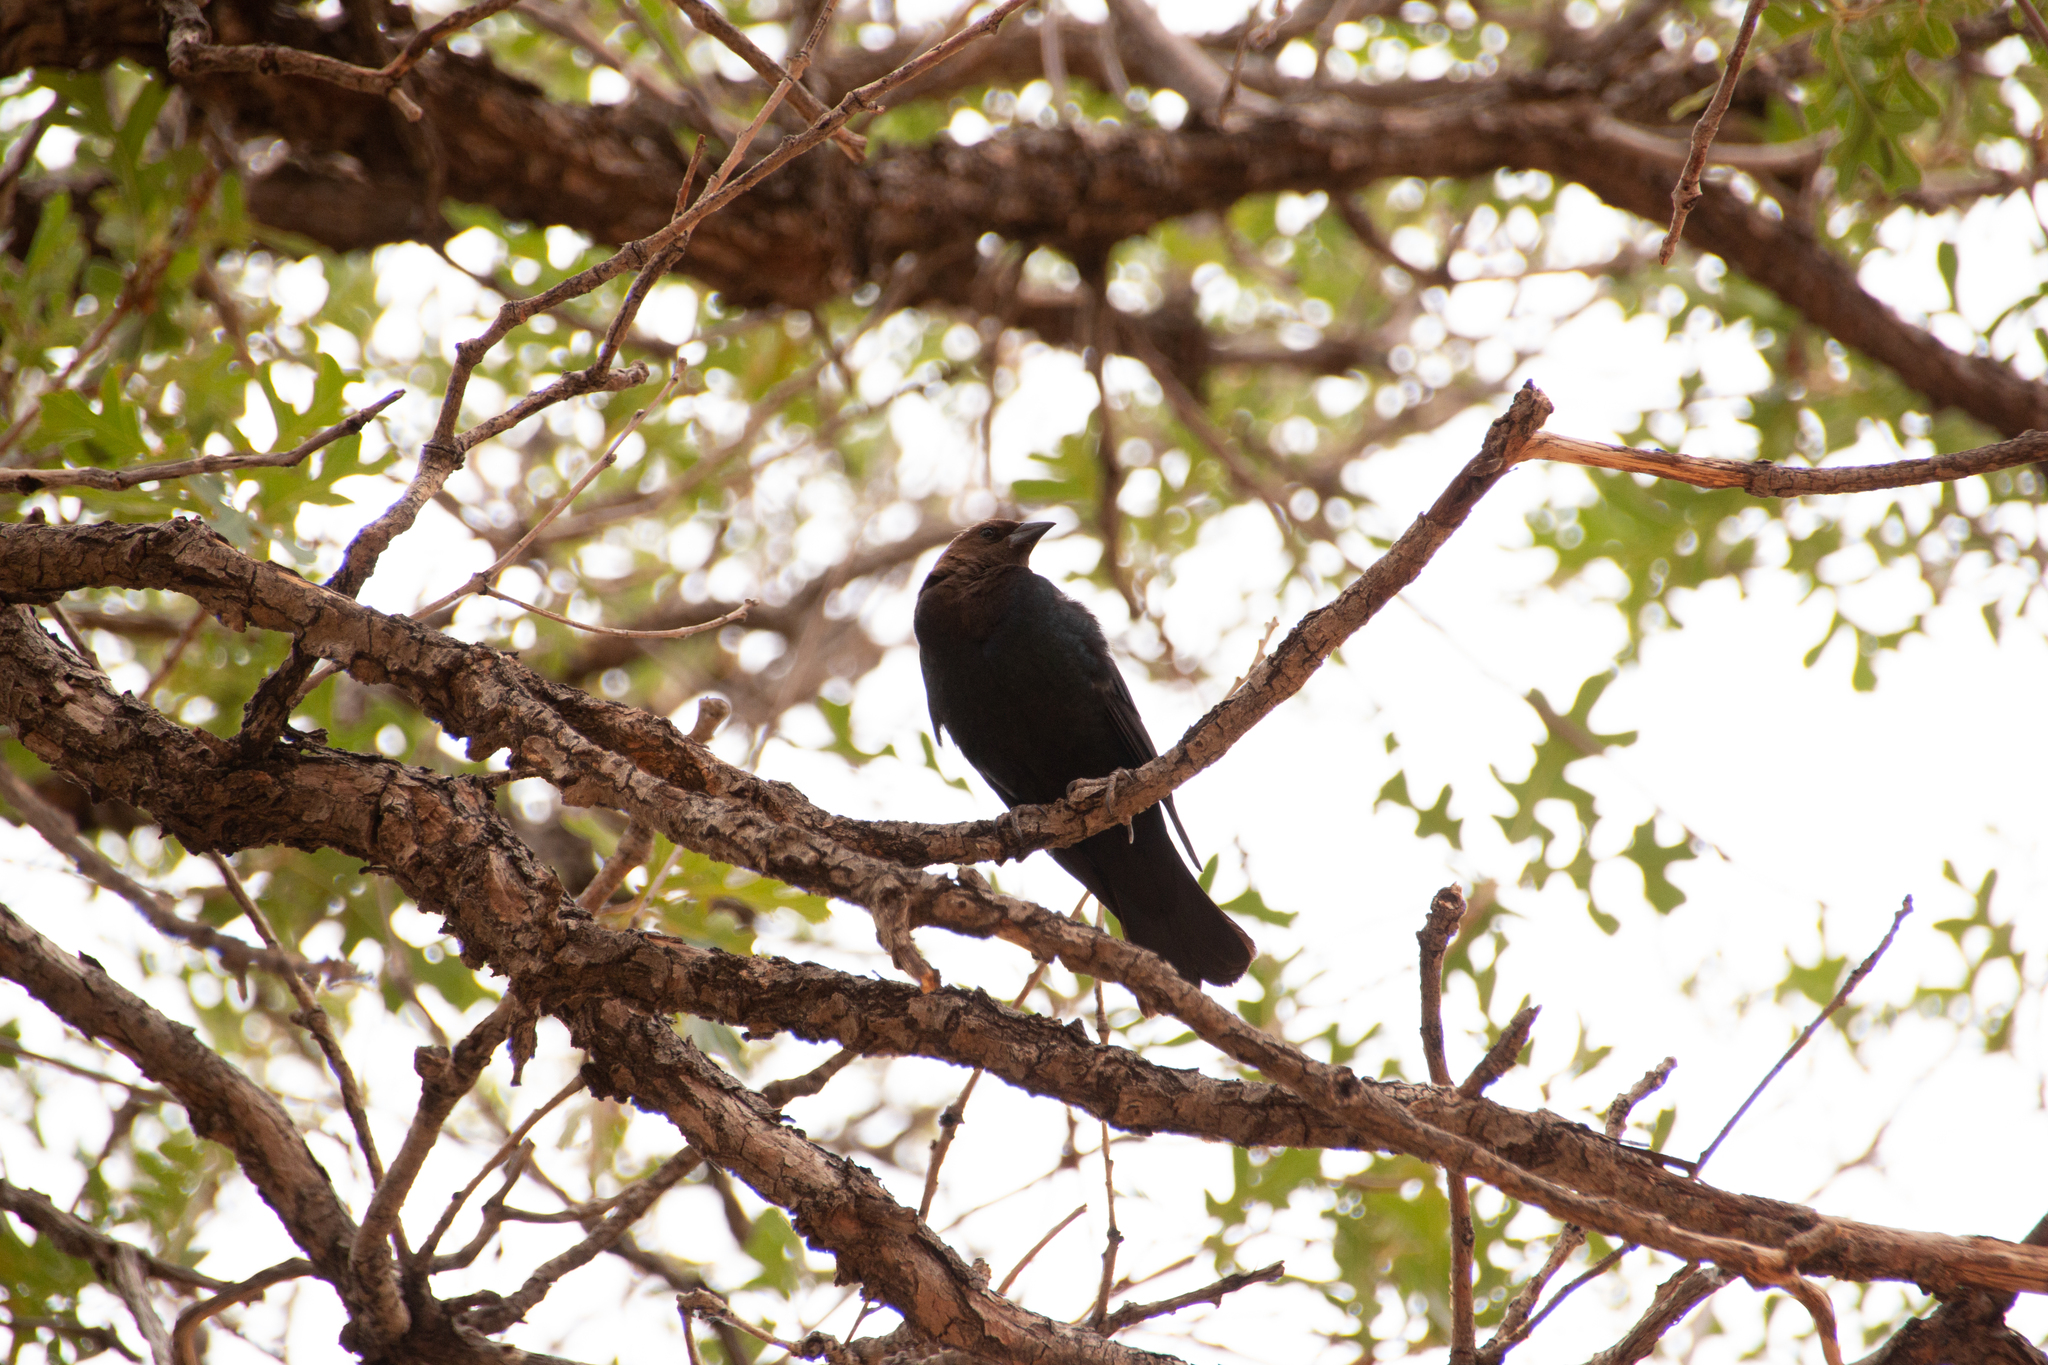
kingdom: Animalia
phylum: Chordata
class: Aves
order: Passeriformes
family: Icteridae
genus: Molothrus
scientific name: Molothrus ater
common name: Brown-headed cowbird
